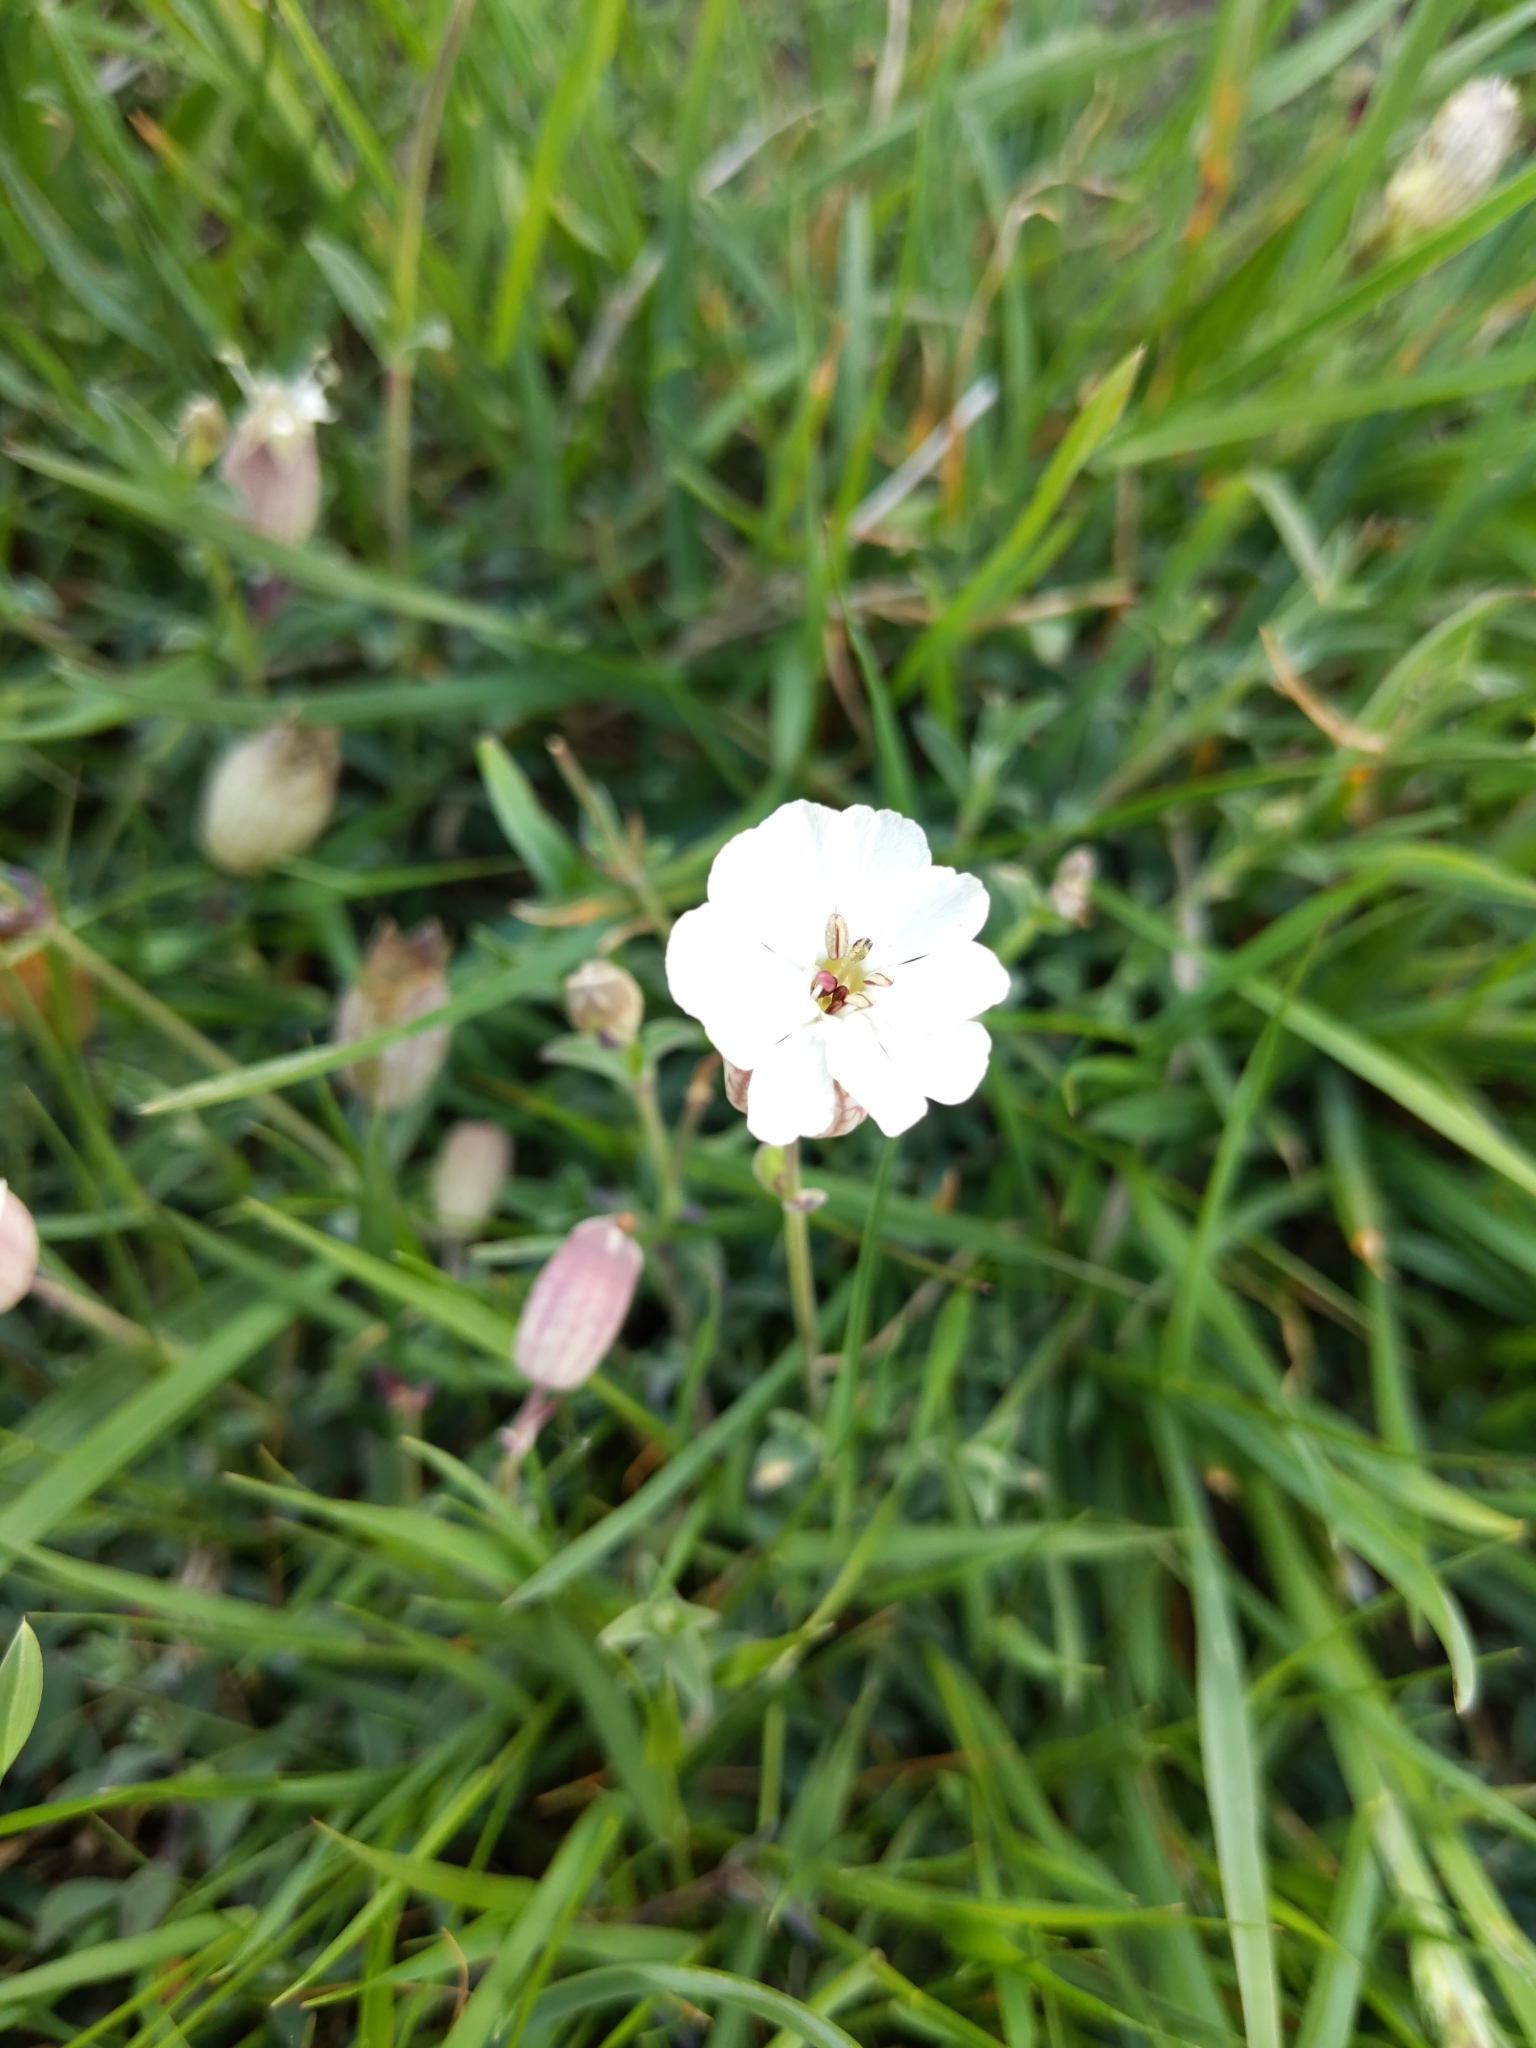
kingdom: Plantae
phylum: Tracheophyta
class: Magnoliopsida
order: Caryophyllales
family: Caryophyllaceae
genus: Silene
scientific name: Silene uniflora
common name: Sea campion
